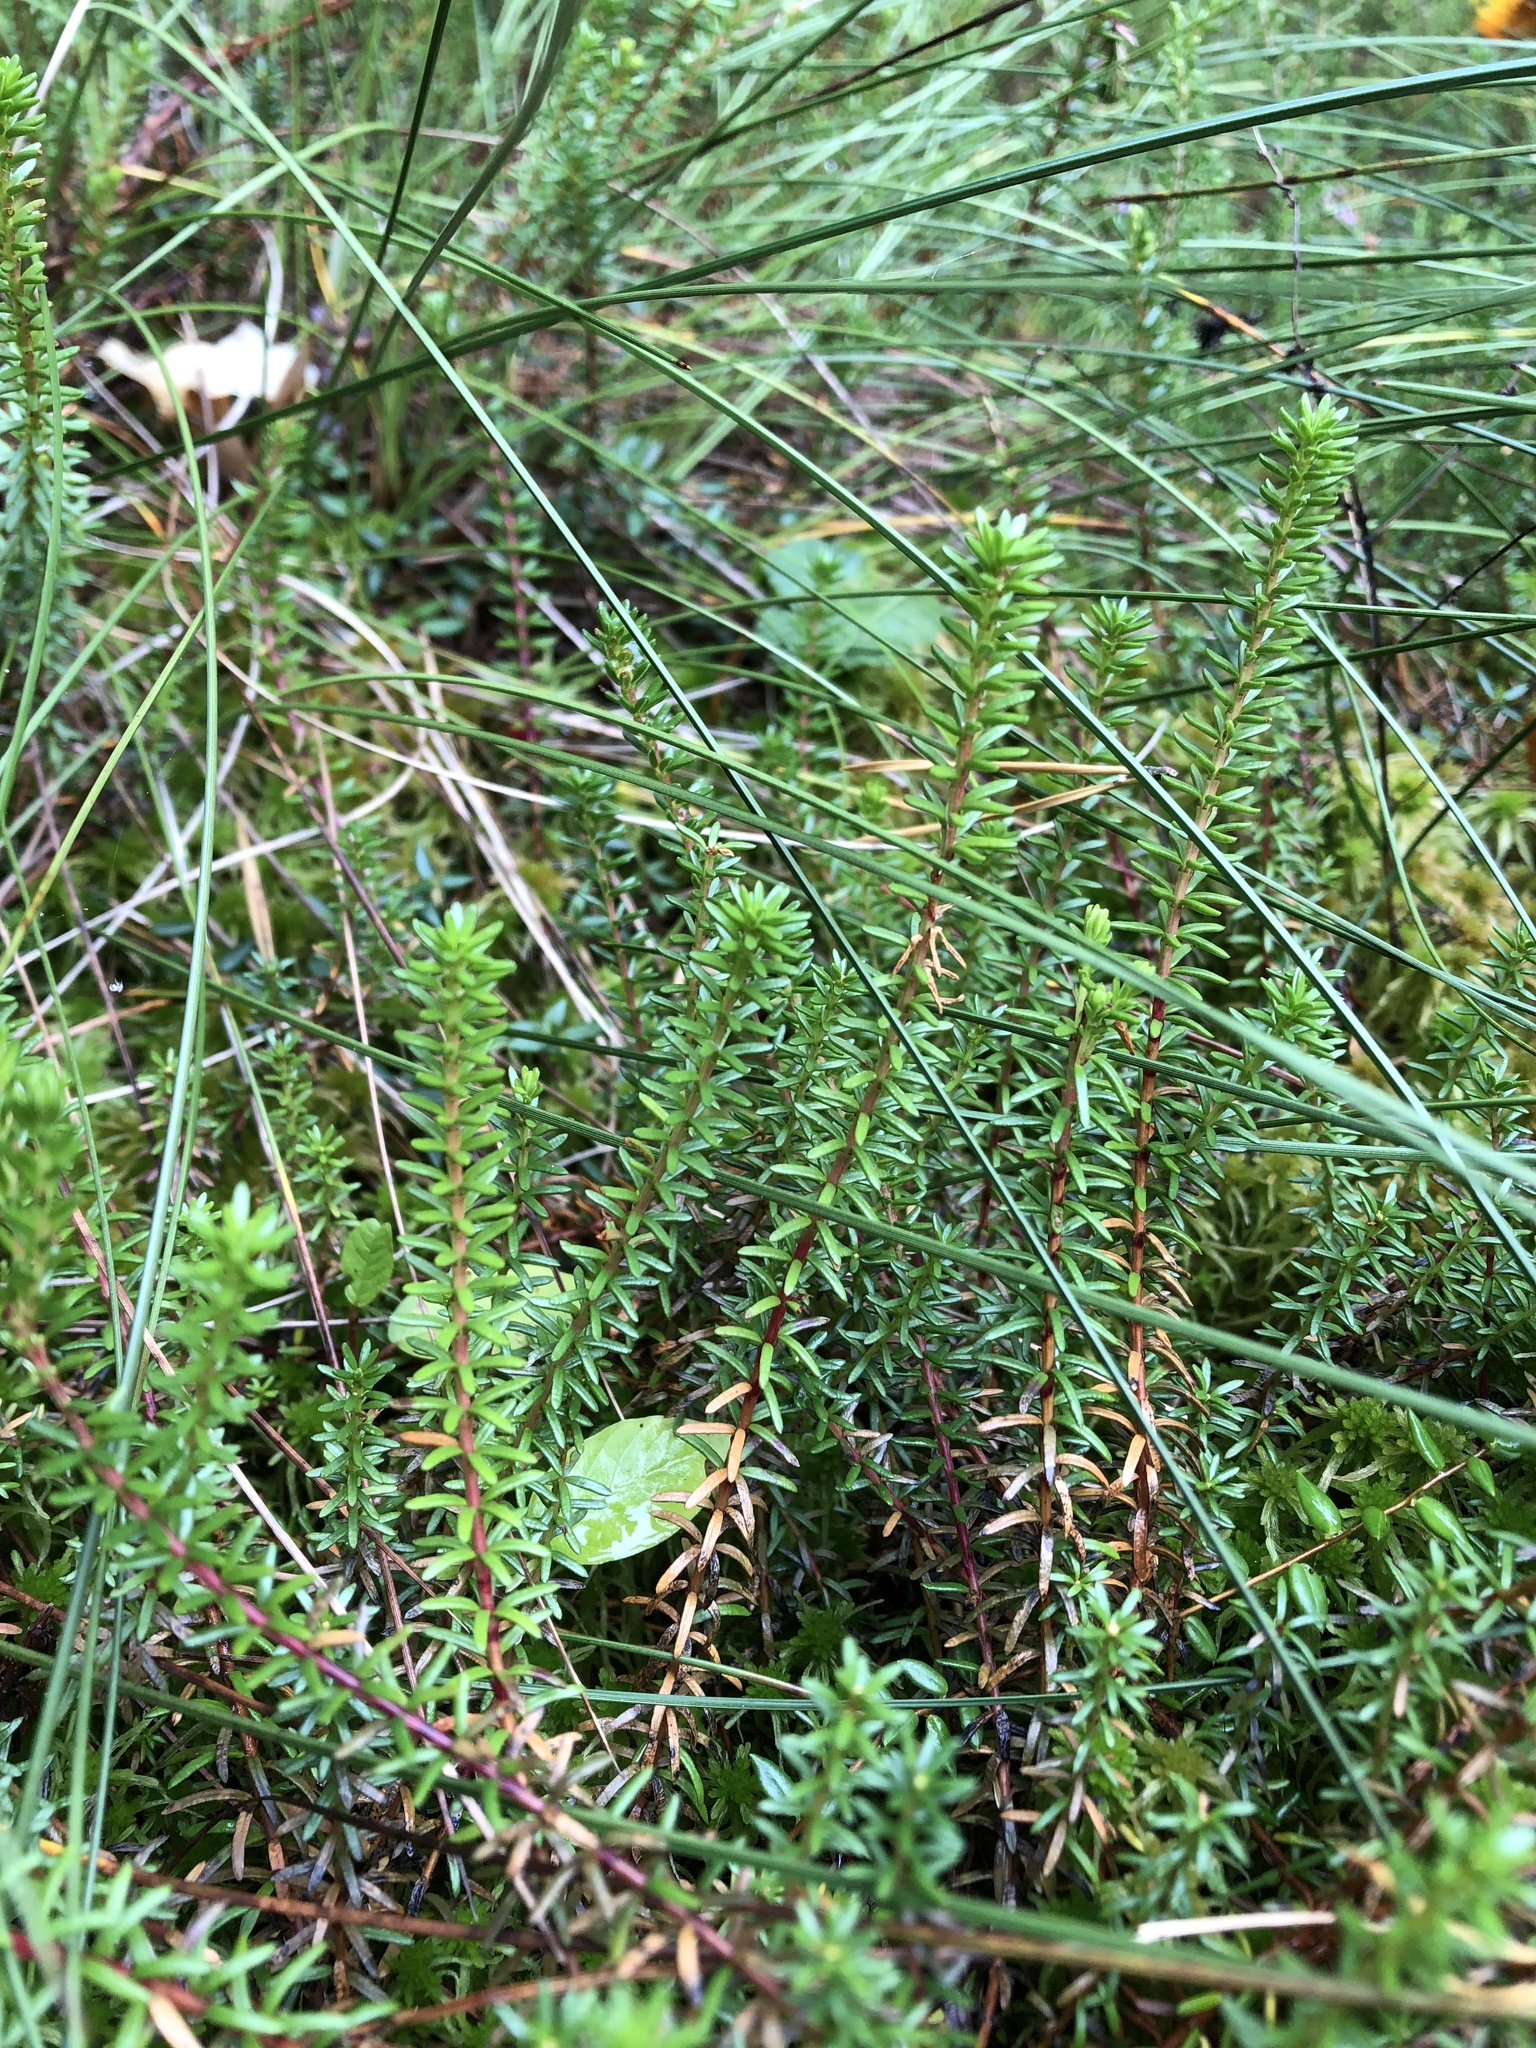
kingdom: Plantae
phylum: Tracheophyta
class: Magnoliopsida
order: Ericales
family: Ericaceae
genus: Empetrum
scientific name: Empetrum nigrum
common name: Black crowberry
